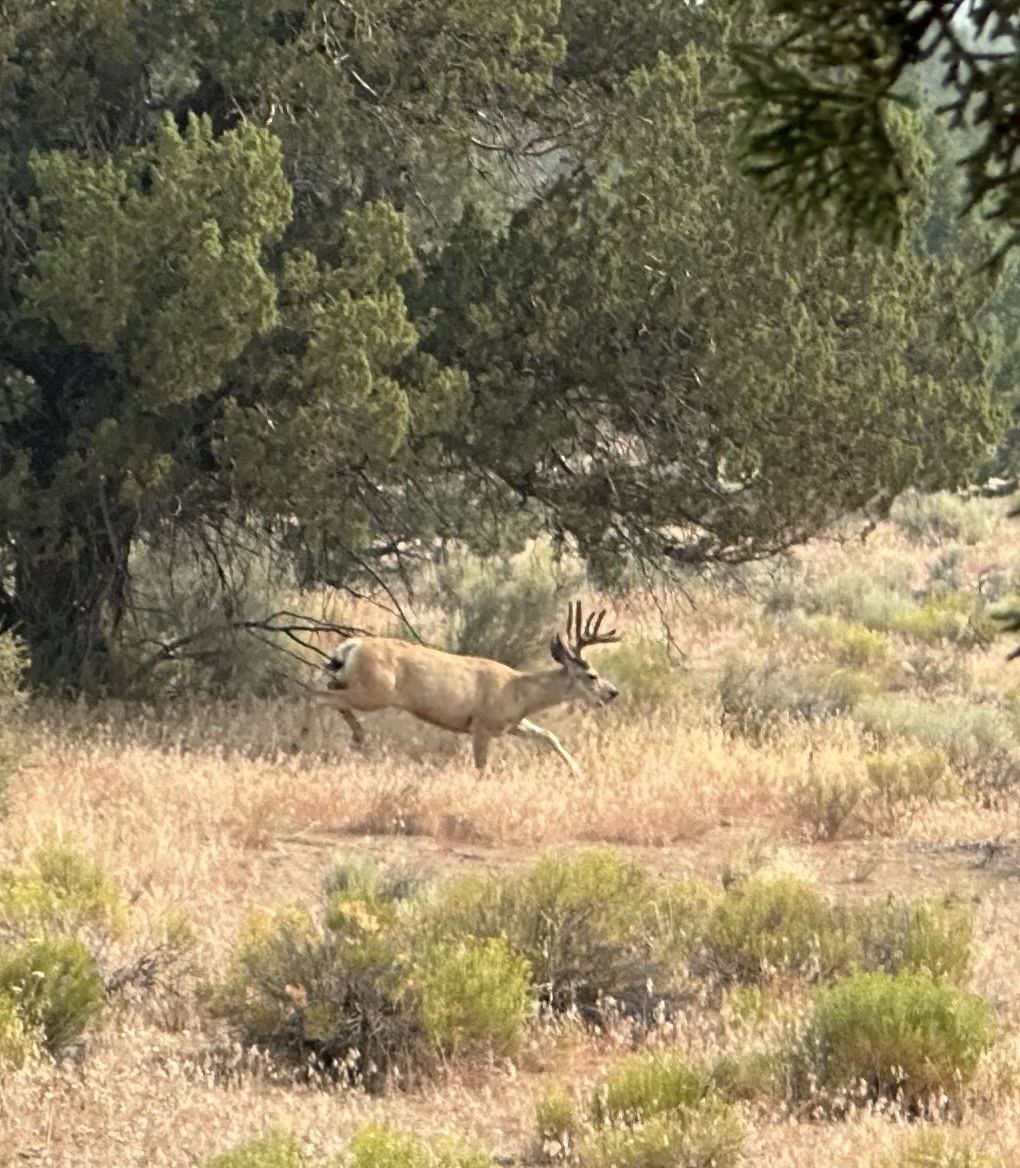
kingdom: Animalia
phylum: Chordata
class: Mammalia
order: Artiodactyla
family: Cervidae
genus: Odocoileus
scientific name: Odocoileus hemionus
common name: Mule deer
